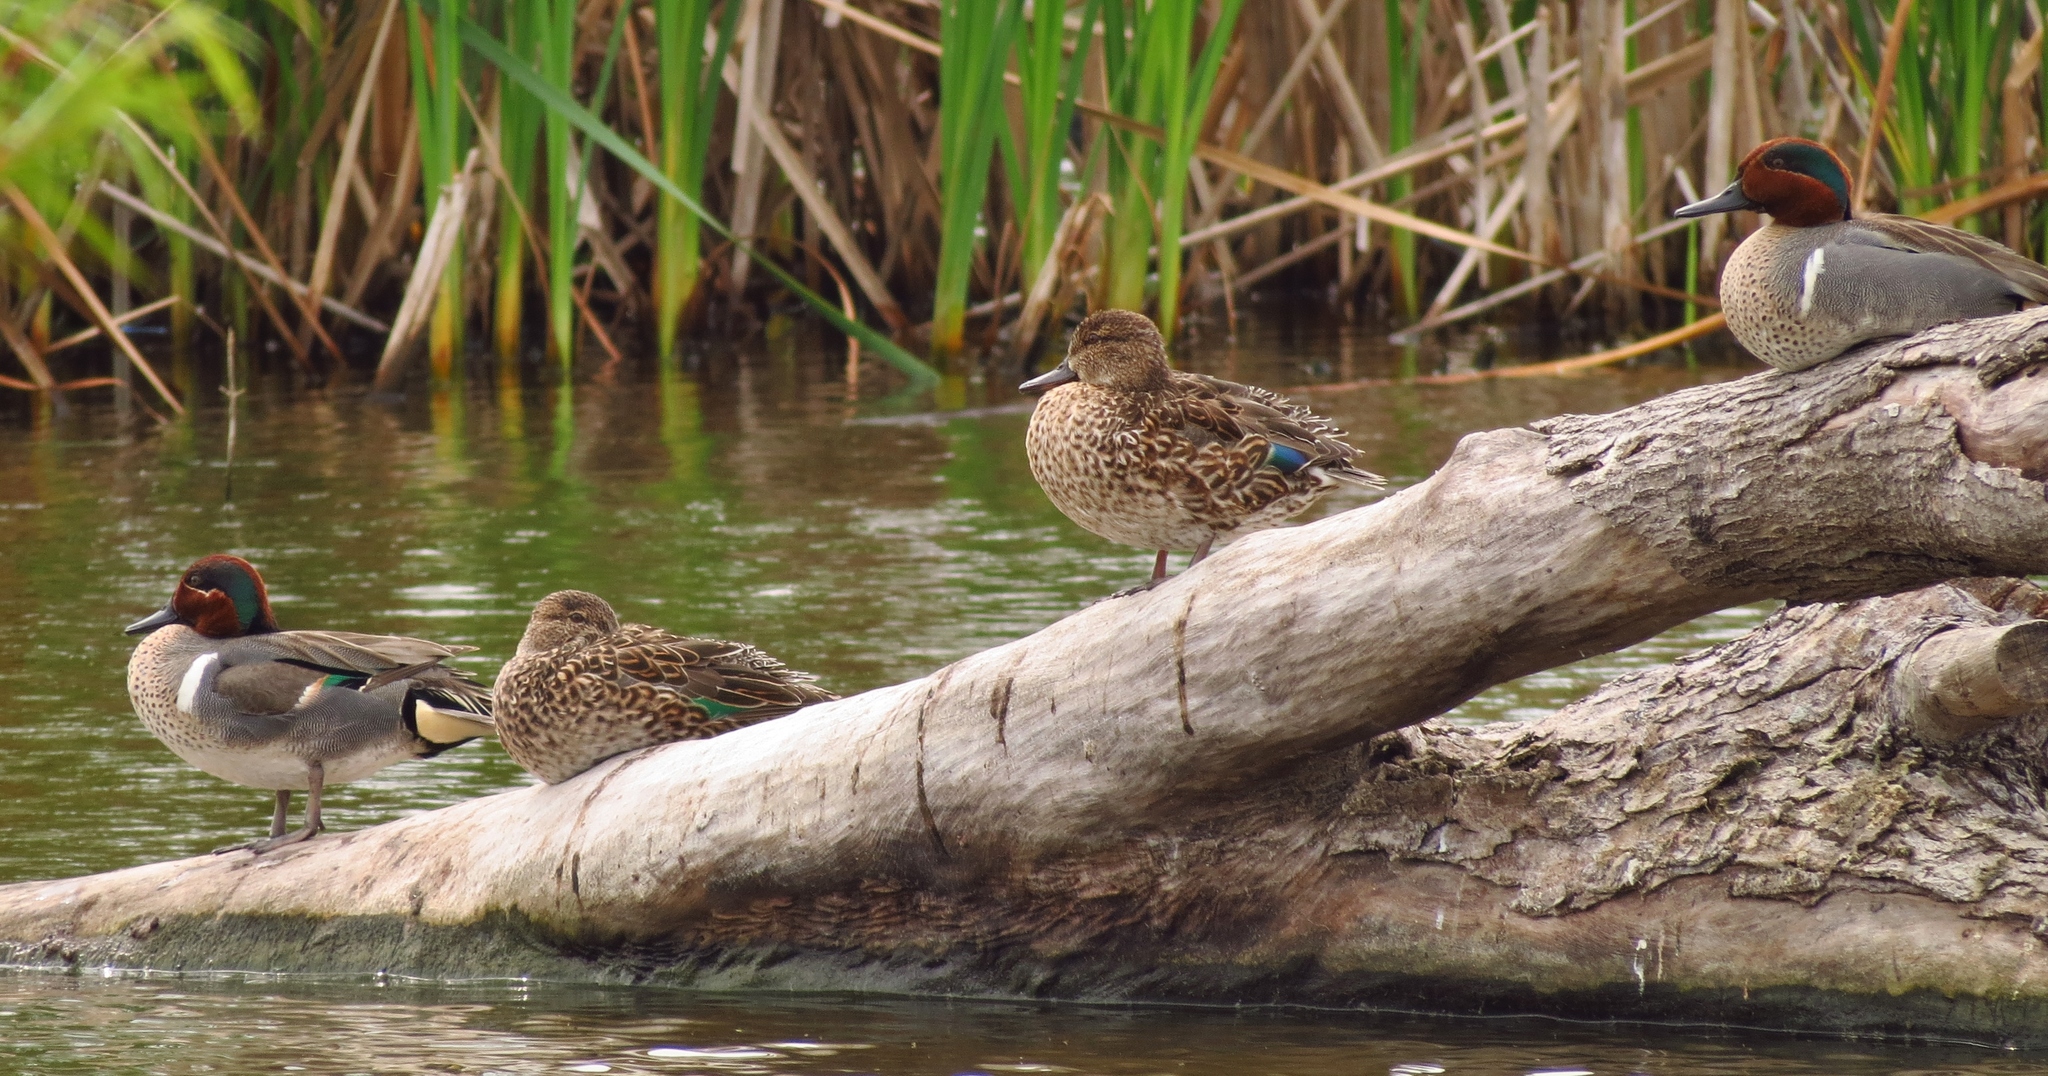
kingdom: Animalia
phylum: Chordata
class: Aves
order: Anseriformes
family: Anatidae
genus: Anas
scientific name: Anas crecca
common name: Eurasian teal
